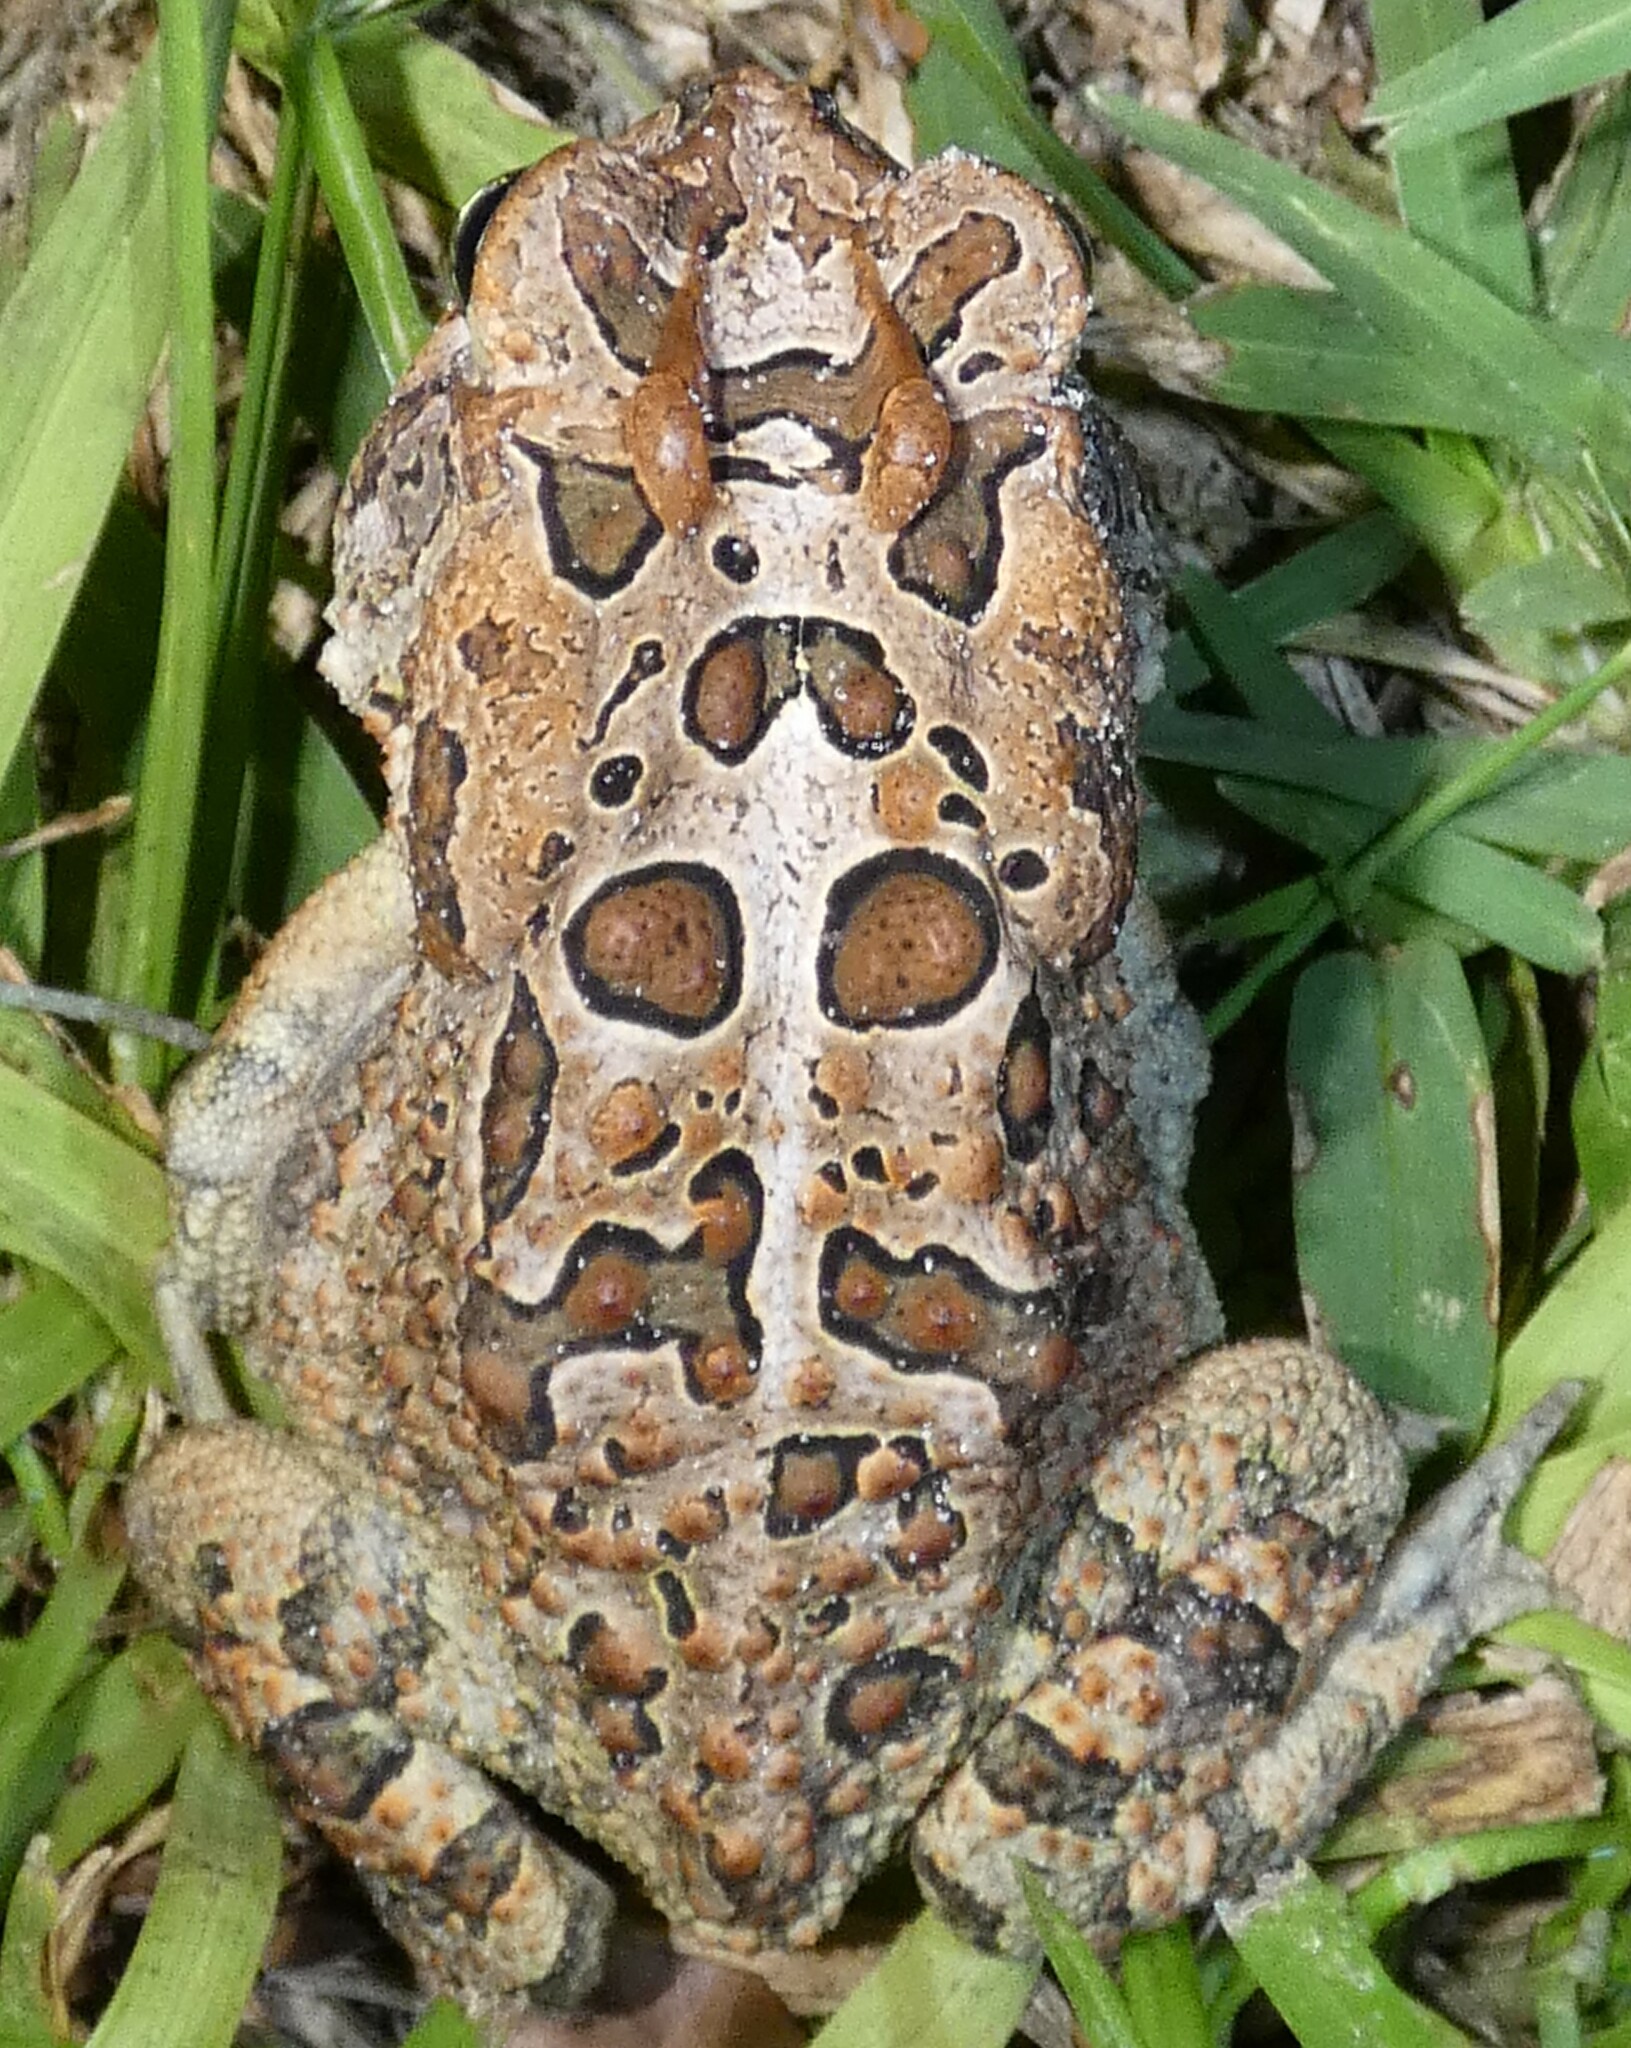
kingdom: Animalia
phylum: Chordata
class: Amphibia
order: Anura
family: Bufonidae
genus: Anaxyrus
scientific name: Anaxyrus terrestris
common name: Southern toad
